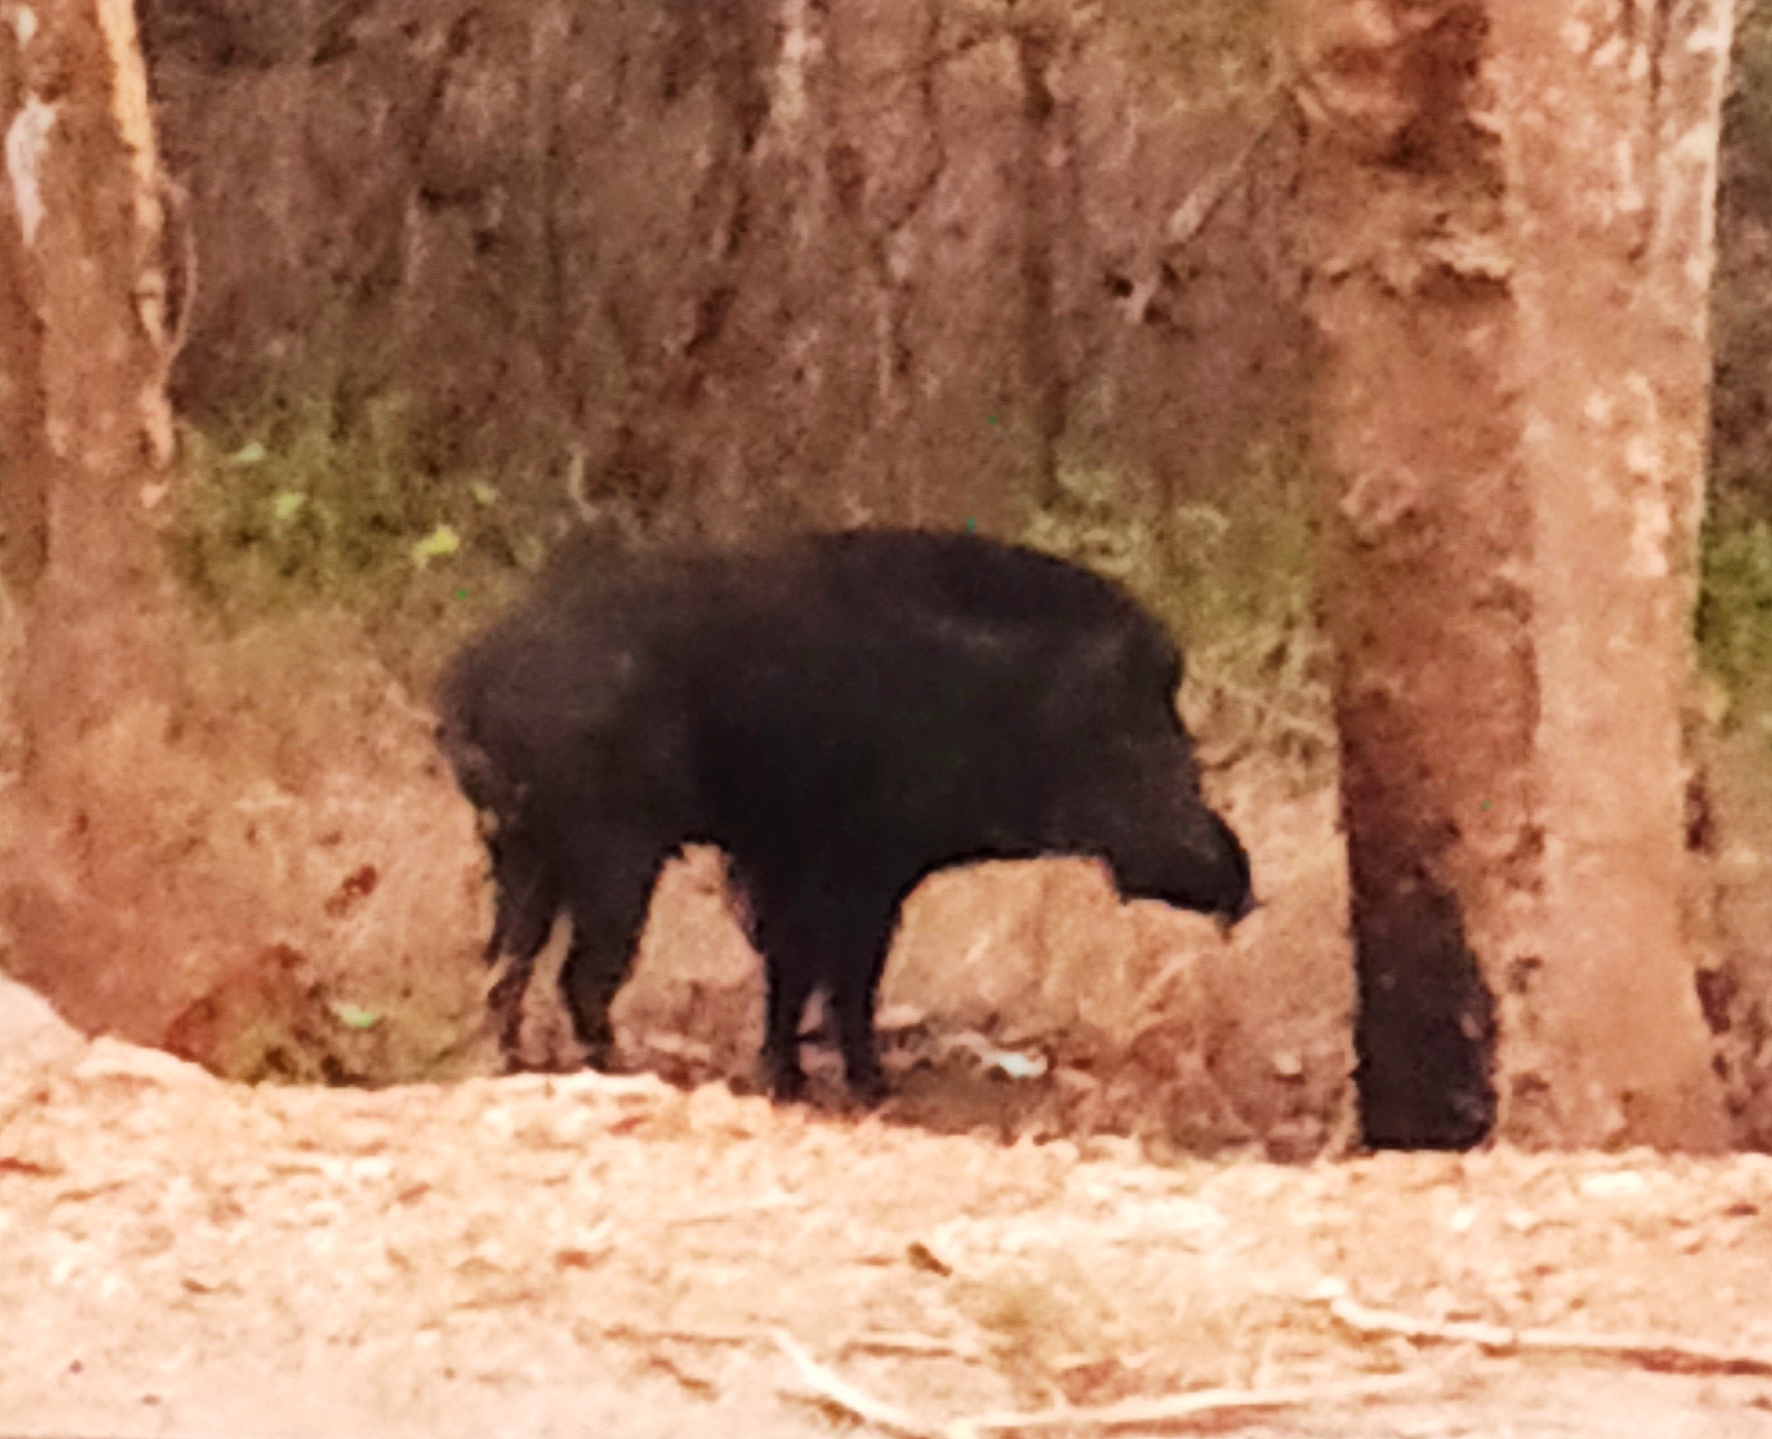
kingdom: Animalia
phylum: Chordata
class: Mammalia
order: Artiodactyla
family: Suidae
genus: Sus
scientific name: Sus scrofa
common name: Wild boar
